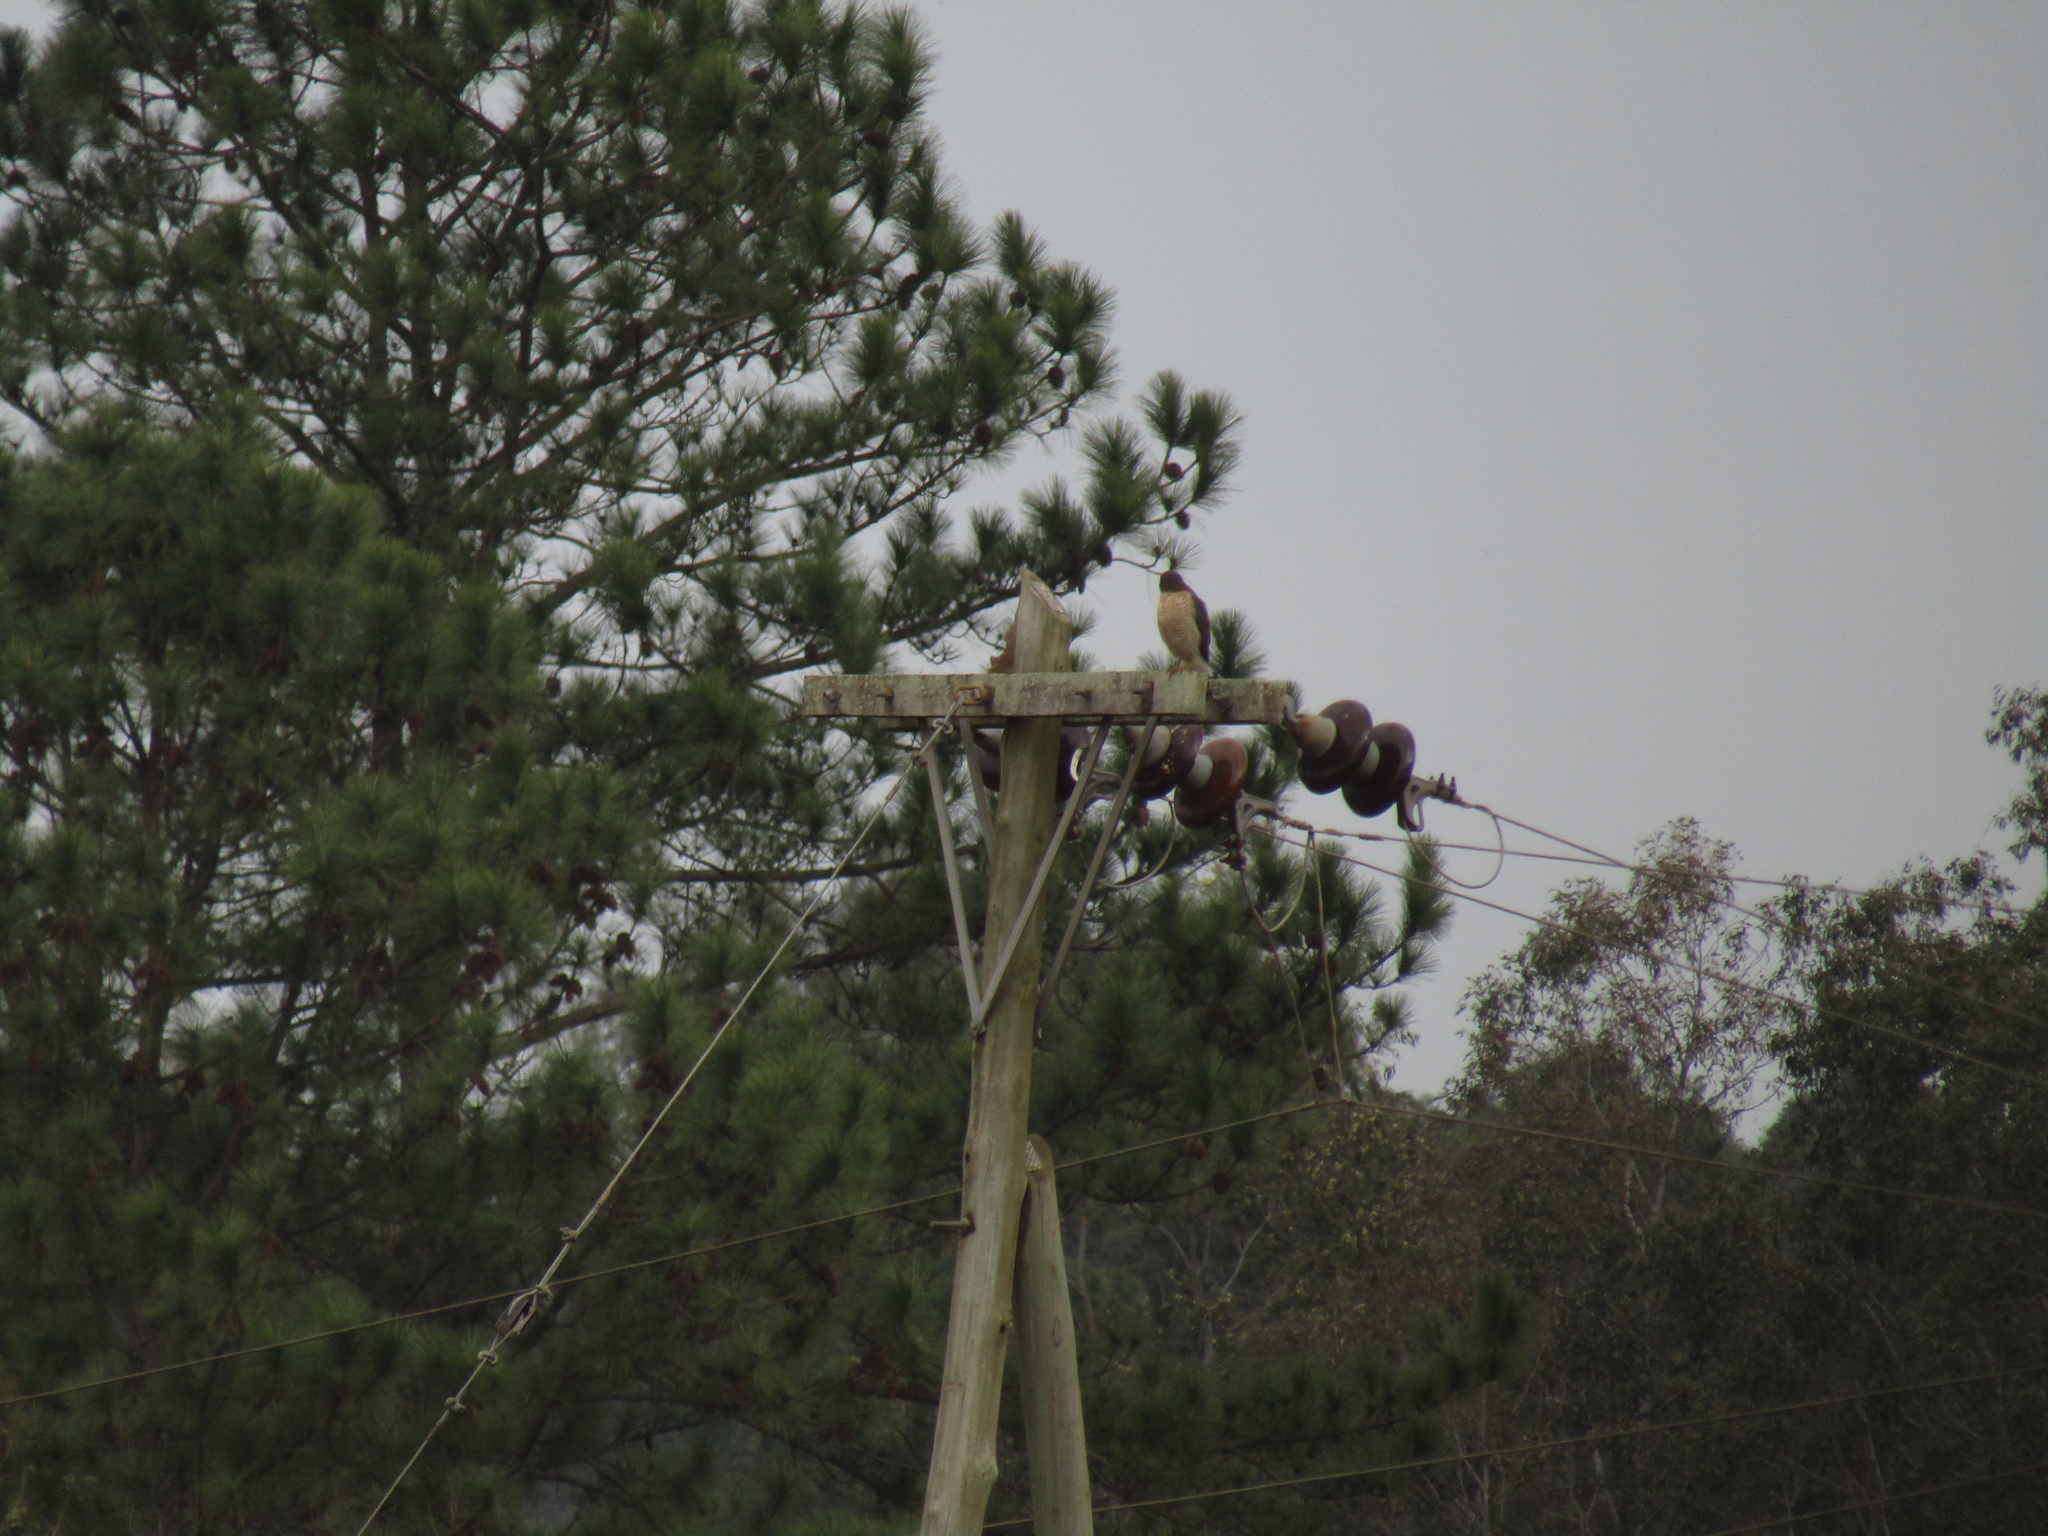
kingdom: Animalia
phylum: Chordata
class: Aves
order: Accipitriformes
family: Accipitridae
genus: Rupornis
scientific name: Rupornis magnirostris
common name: Roadside hawk
